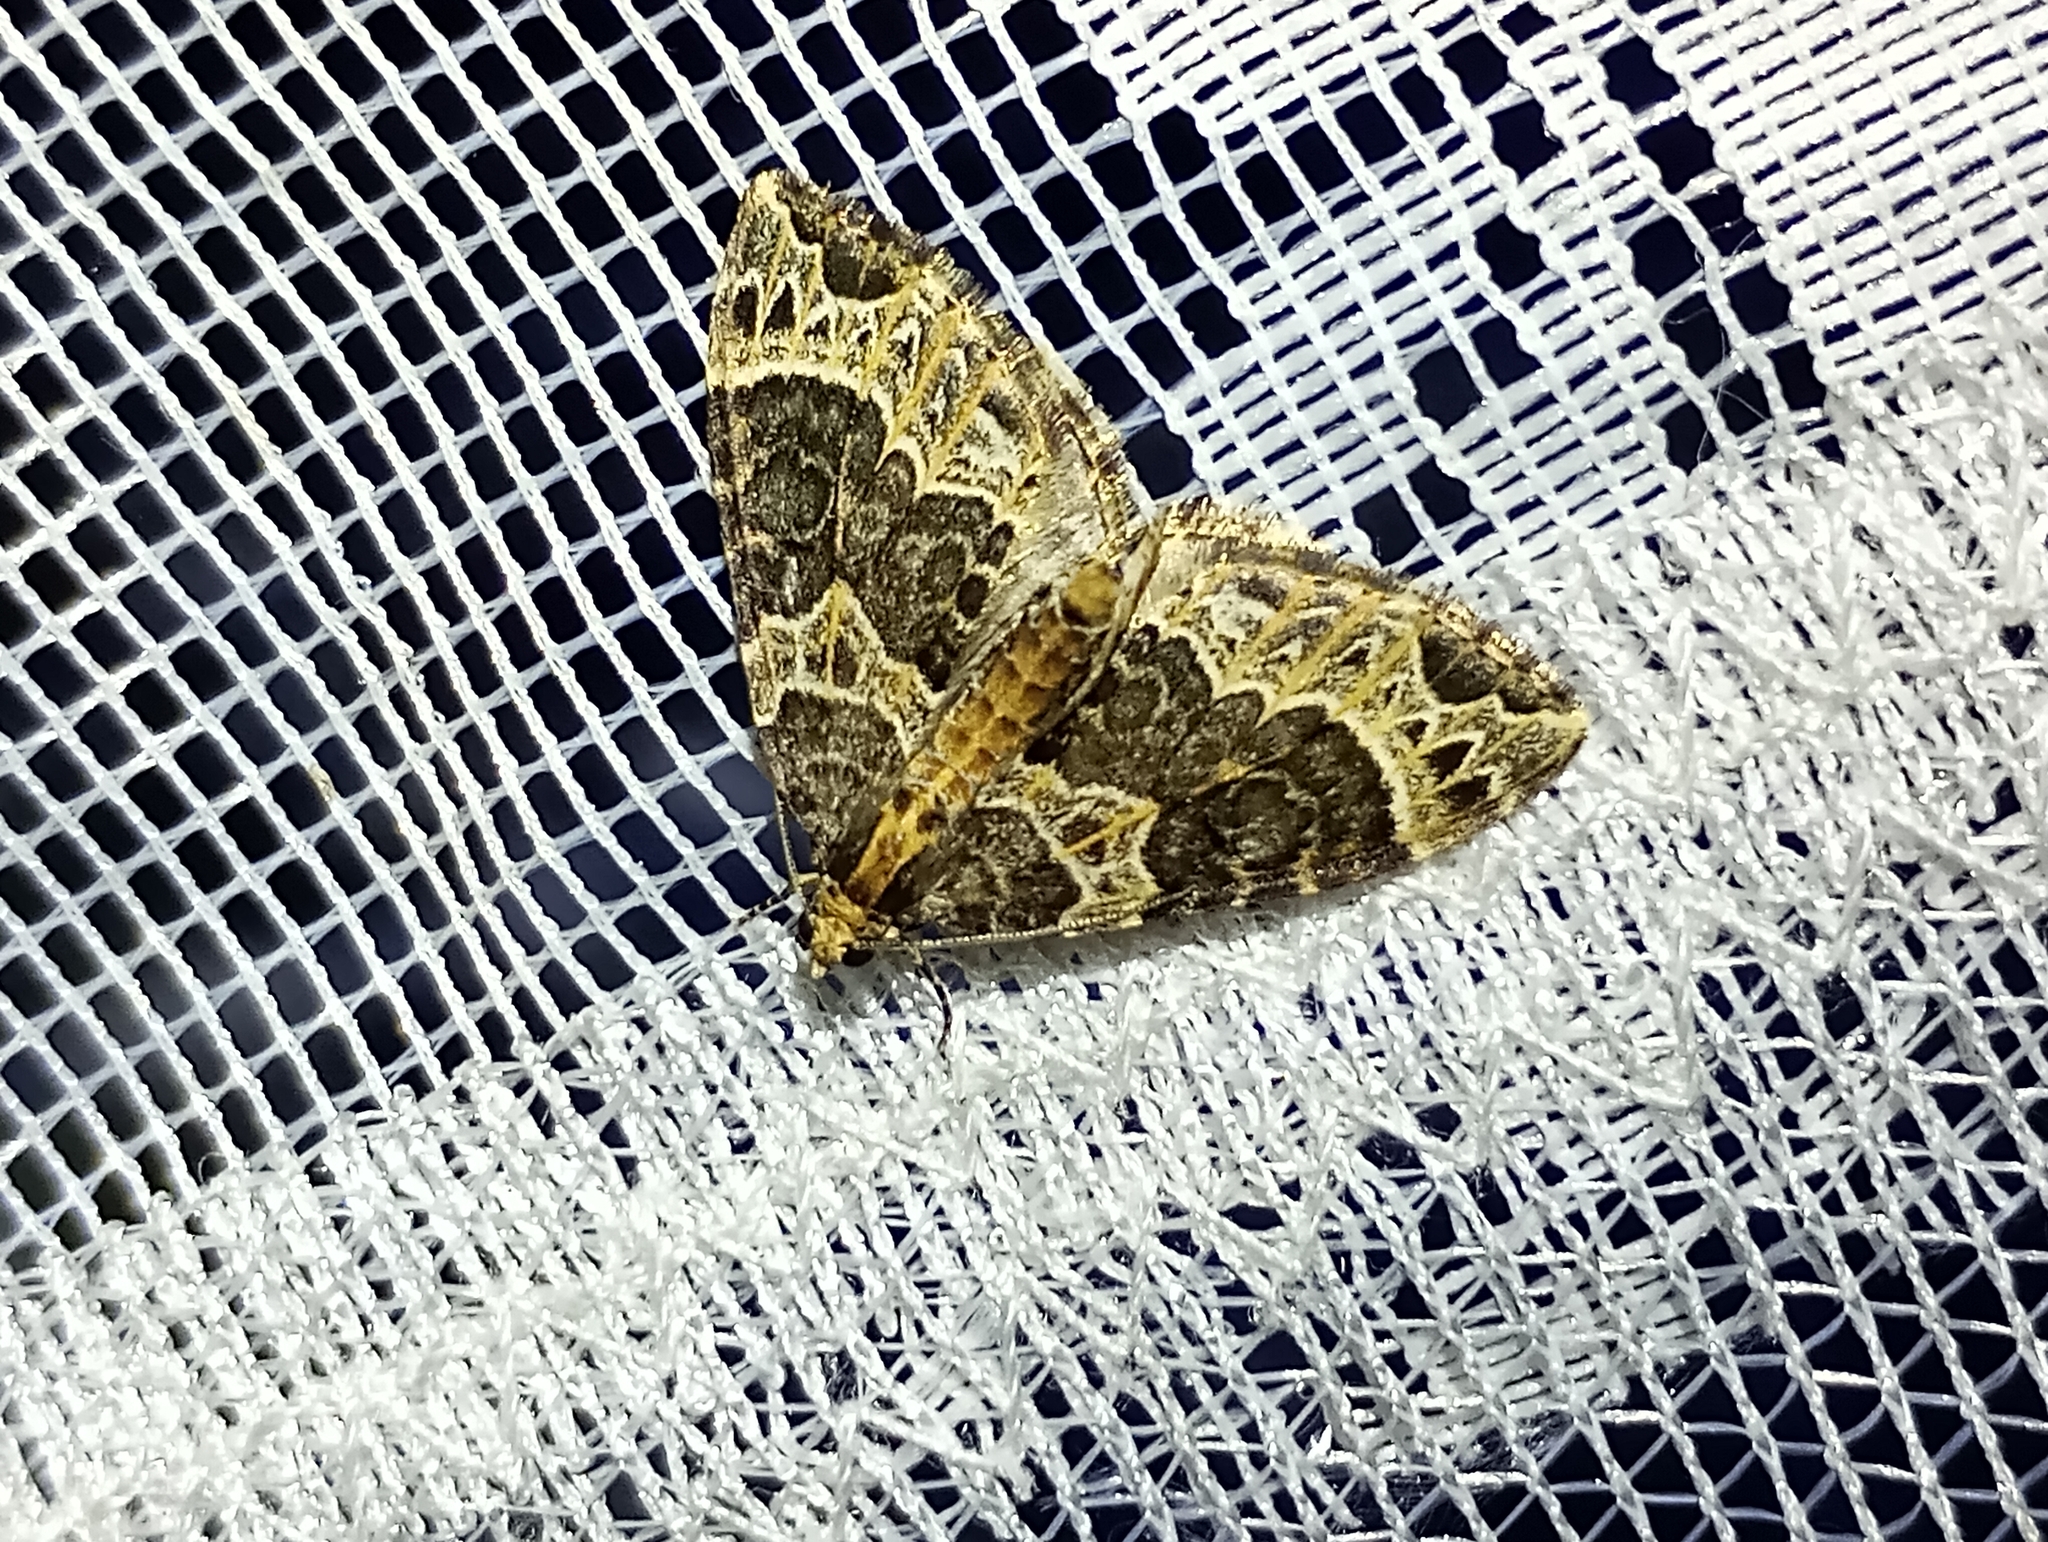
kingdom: Animalia
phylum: Arthropoda
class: Insecta
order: Lepidoptera
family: Geometridae
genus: Ecliptopera
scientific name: Ecliptopera silaceata
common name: Small phoenix
